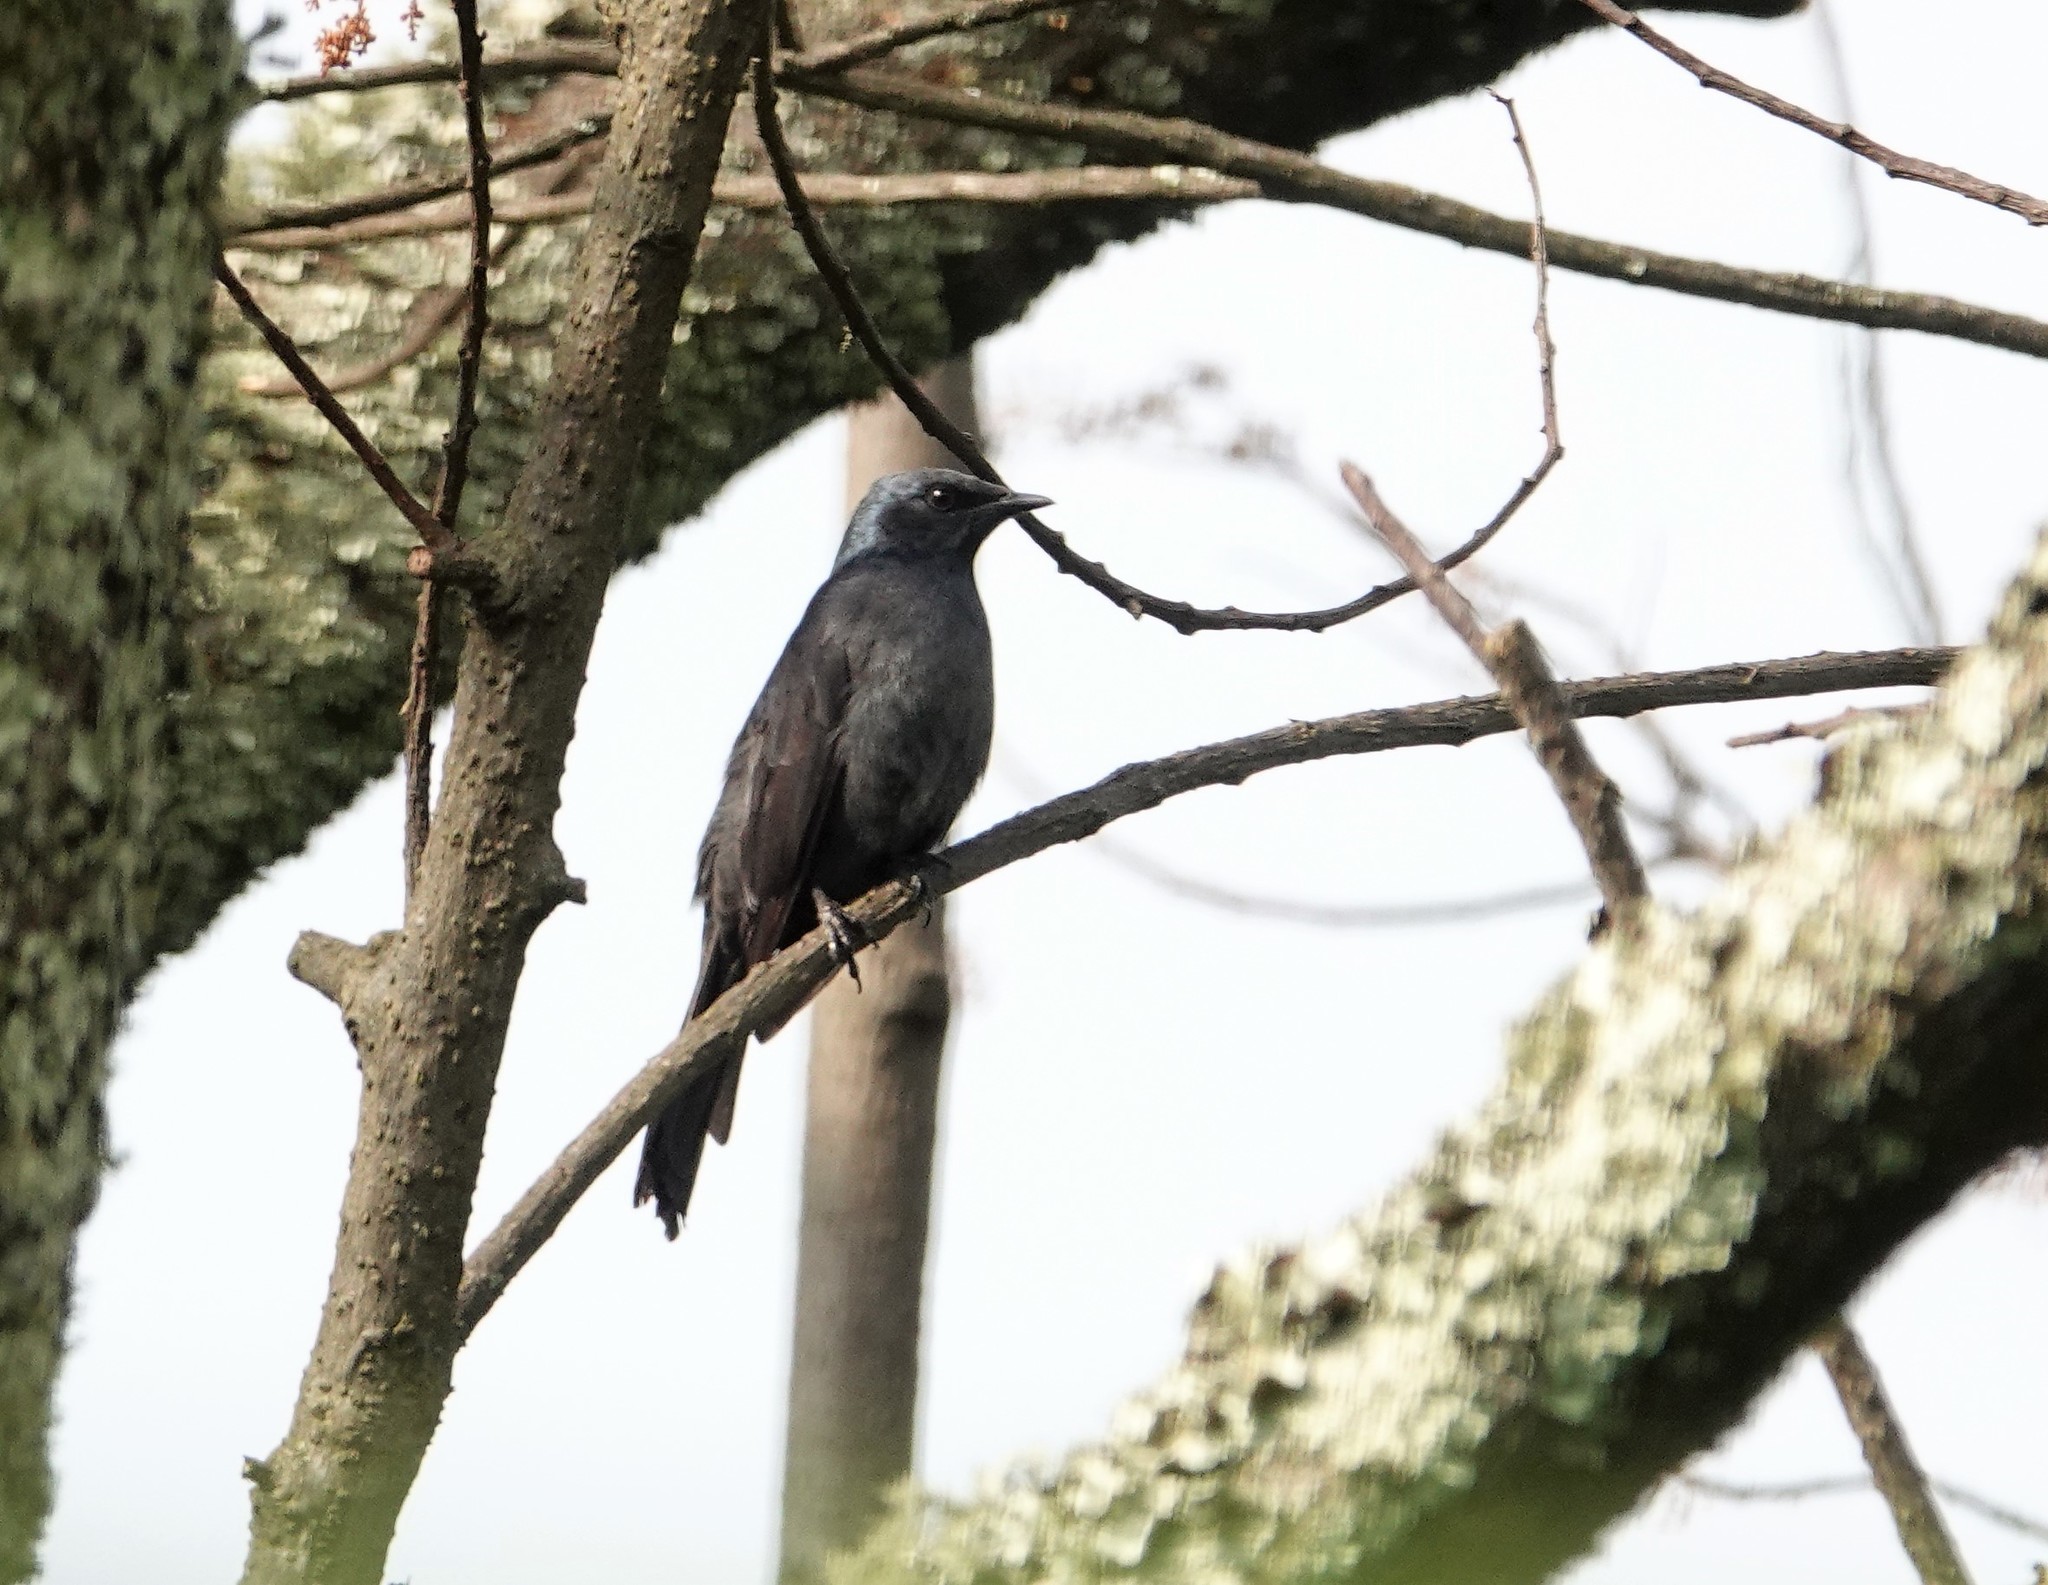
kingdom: Animalia
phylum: Chordata
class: Aves
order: Passeriformes
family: Sturnidae
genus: Poeoptera
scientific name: Poeoptera stuhlmanni
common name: Stuhlmann's starling
